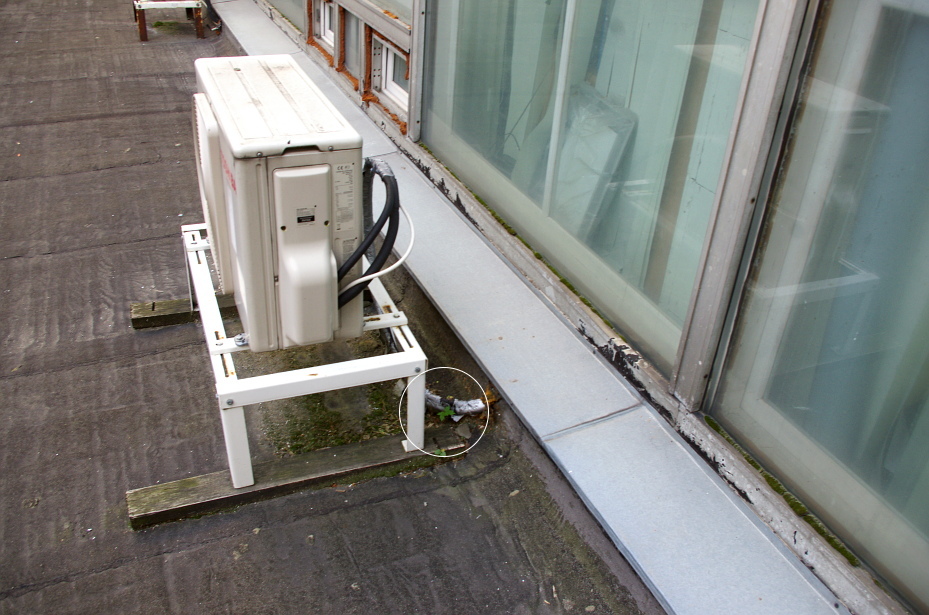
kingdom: Plantae
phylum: Tracheophyta
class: Magnoliopsida
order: Sapindales
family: Sapindaceae
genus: Acer
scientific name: Acer platanoides
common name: Norway maple
